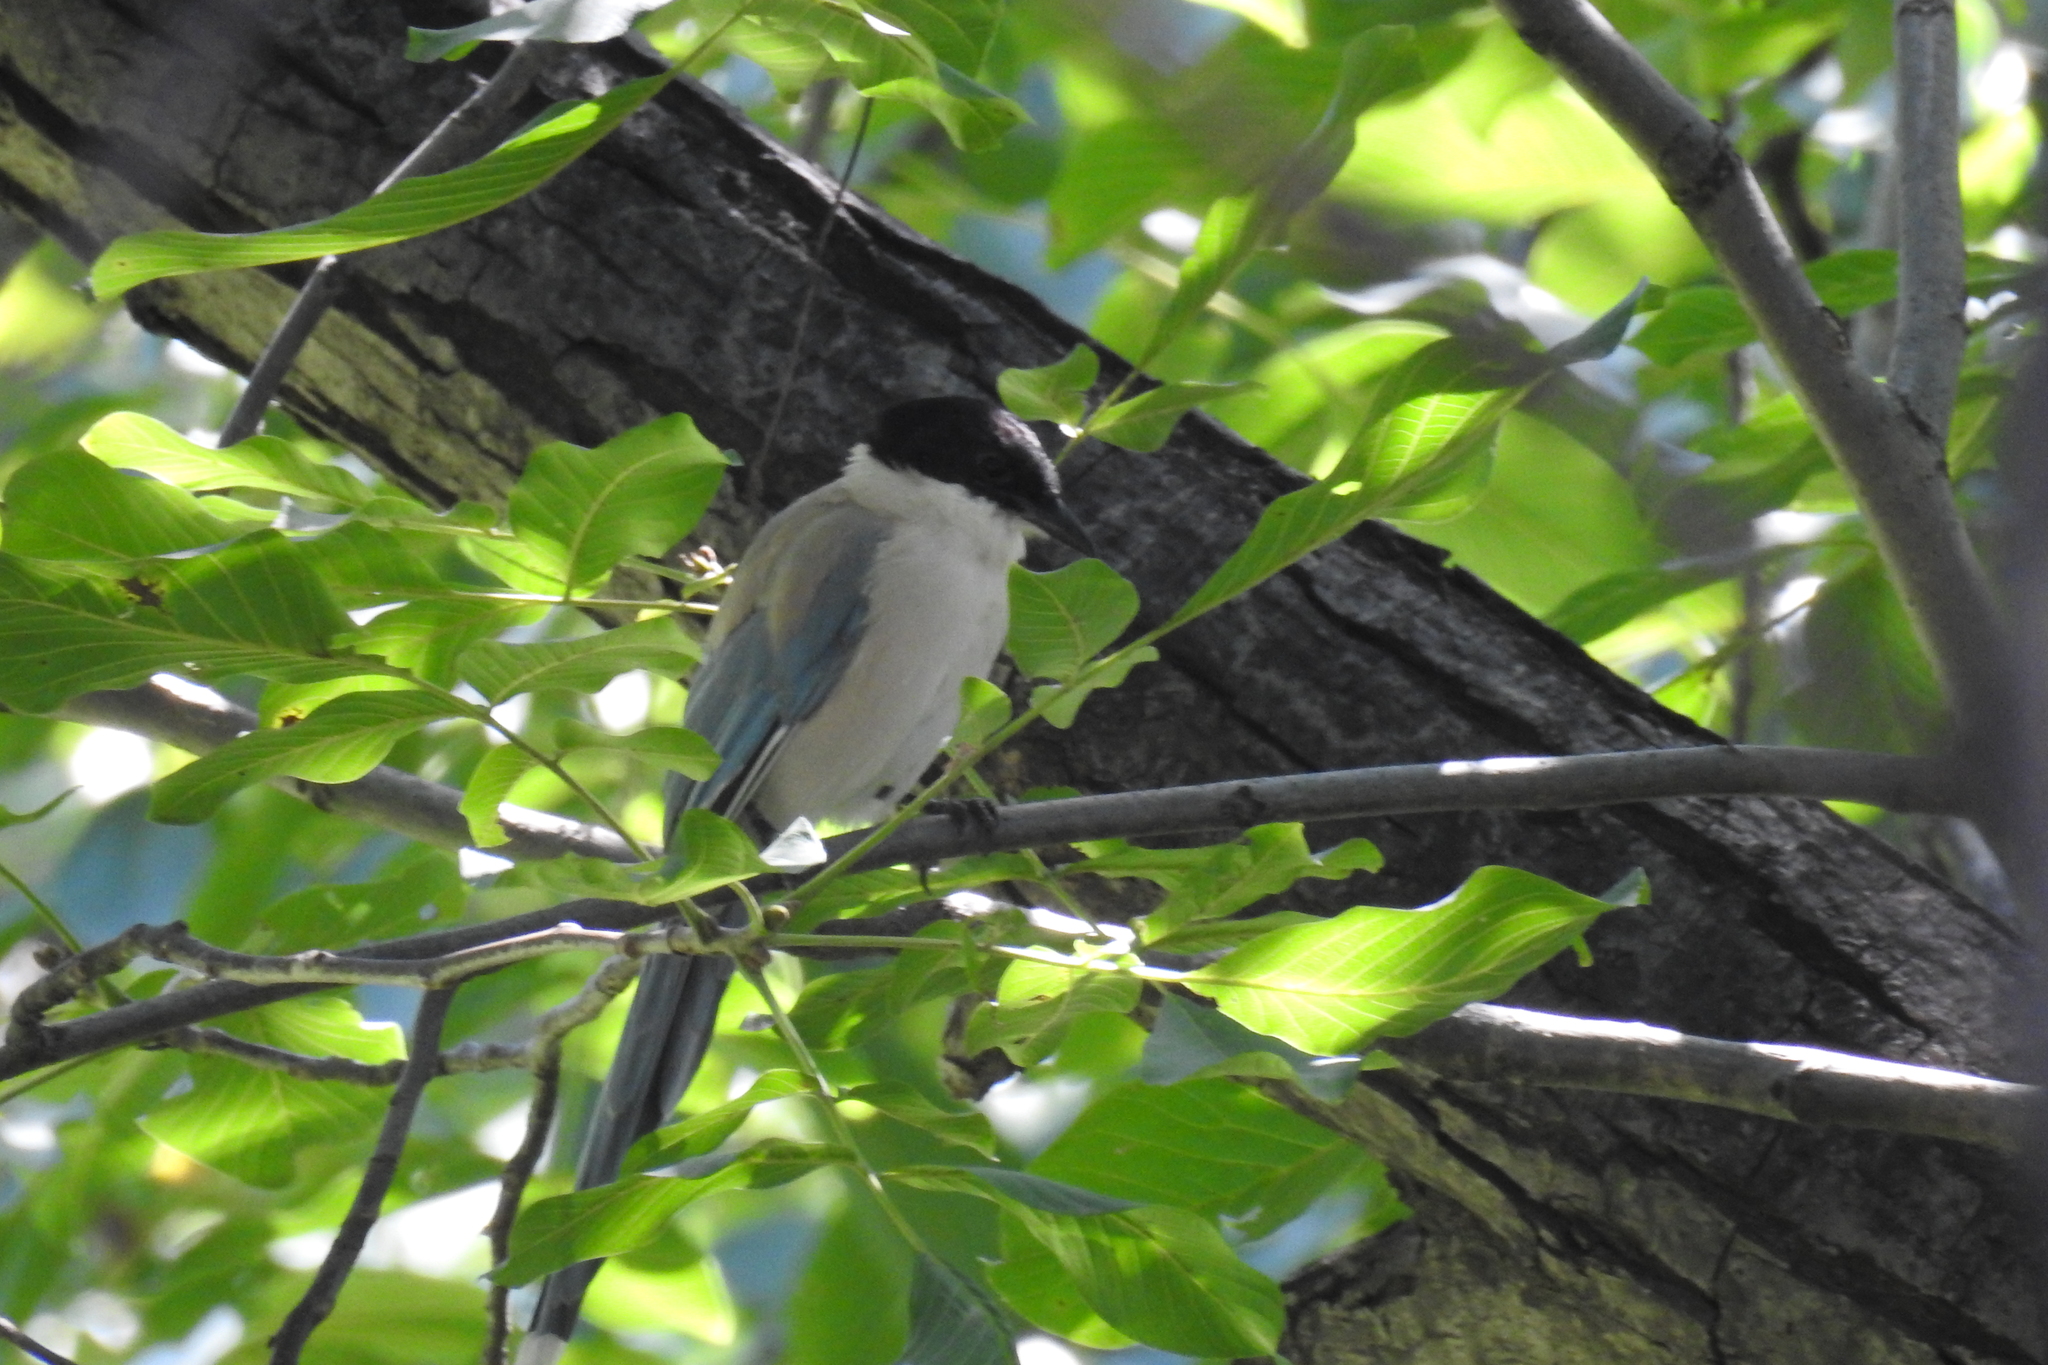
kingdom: Animalia
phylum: Chordata
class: Aves
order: Passeriformes
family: Corvidae
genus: Cyanopica
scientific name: Cyanopica cyanus
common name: Azure-winged magpie
